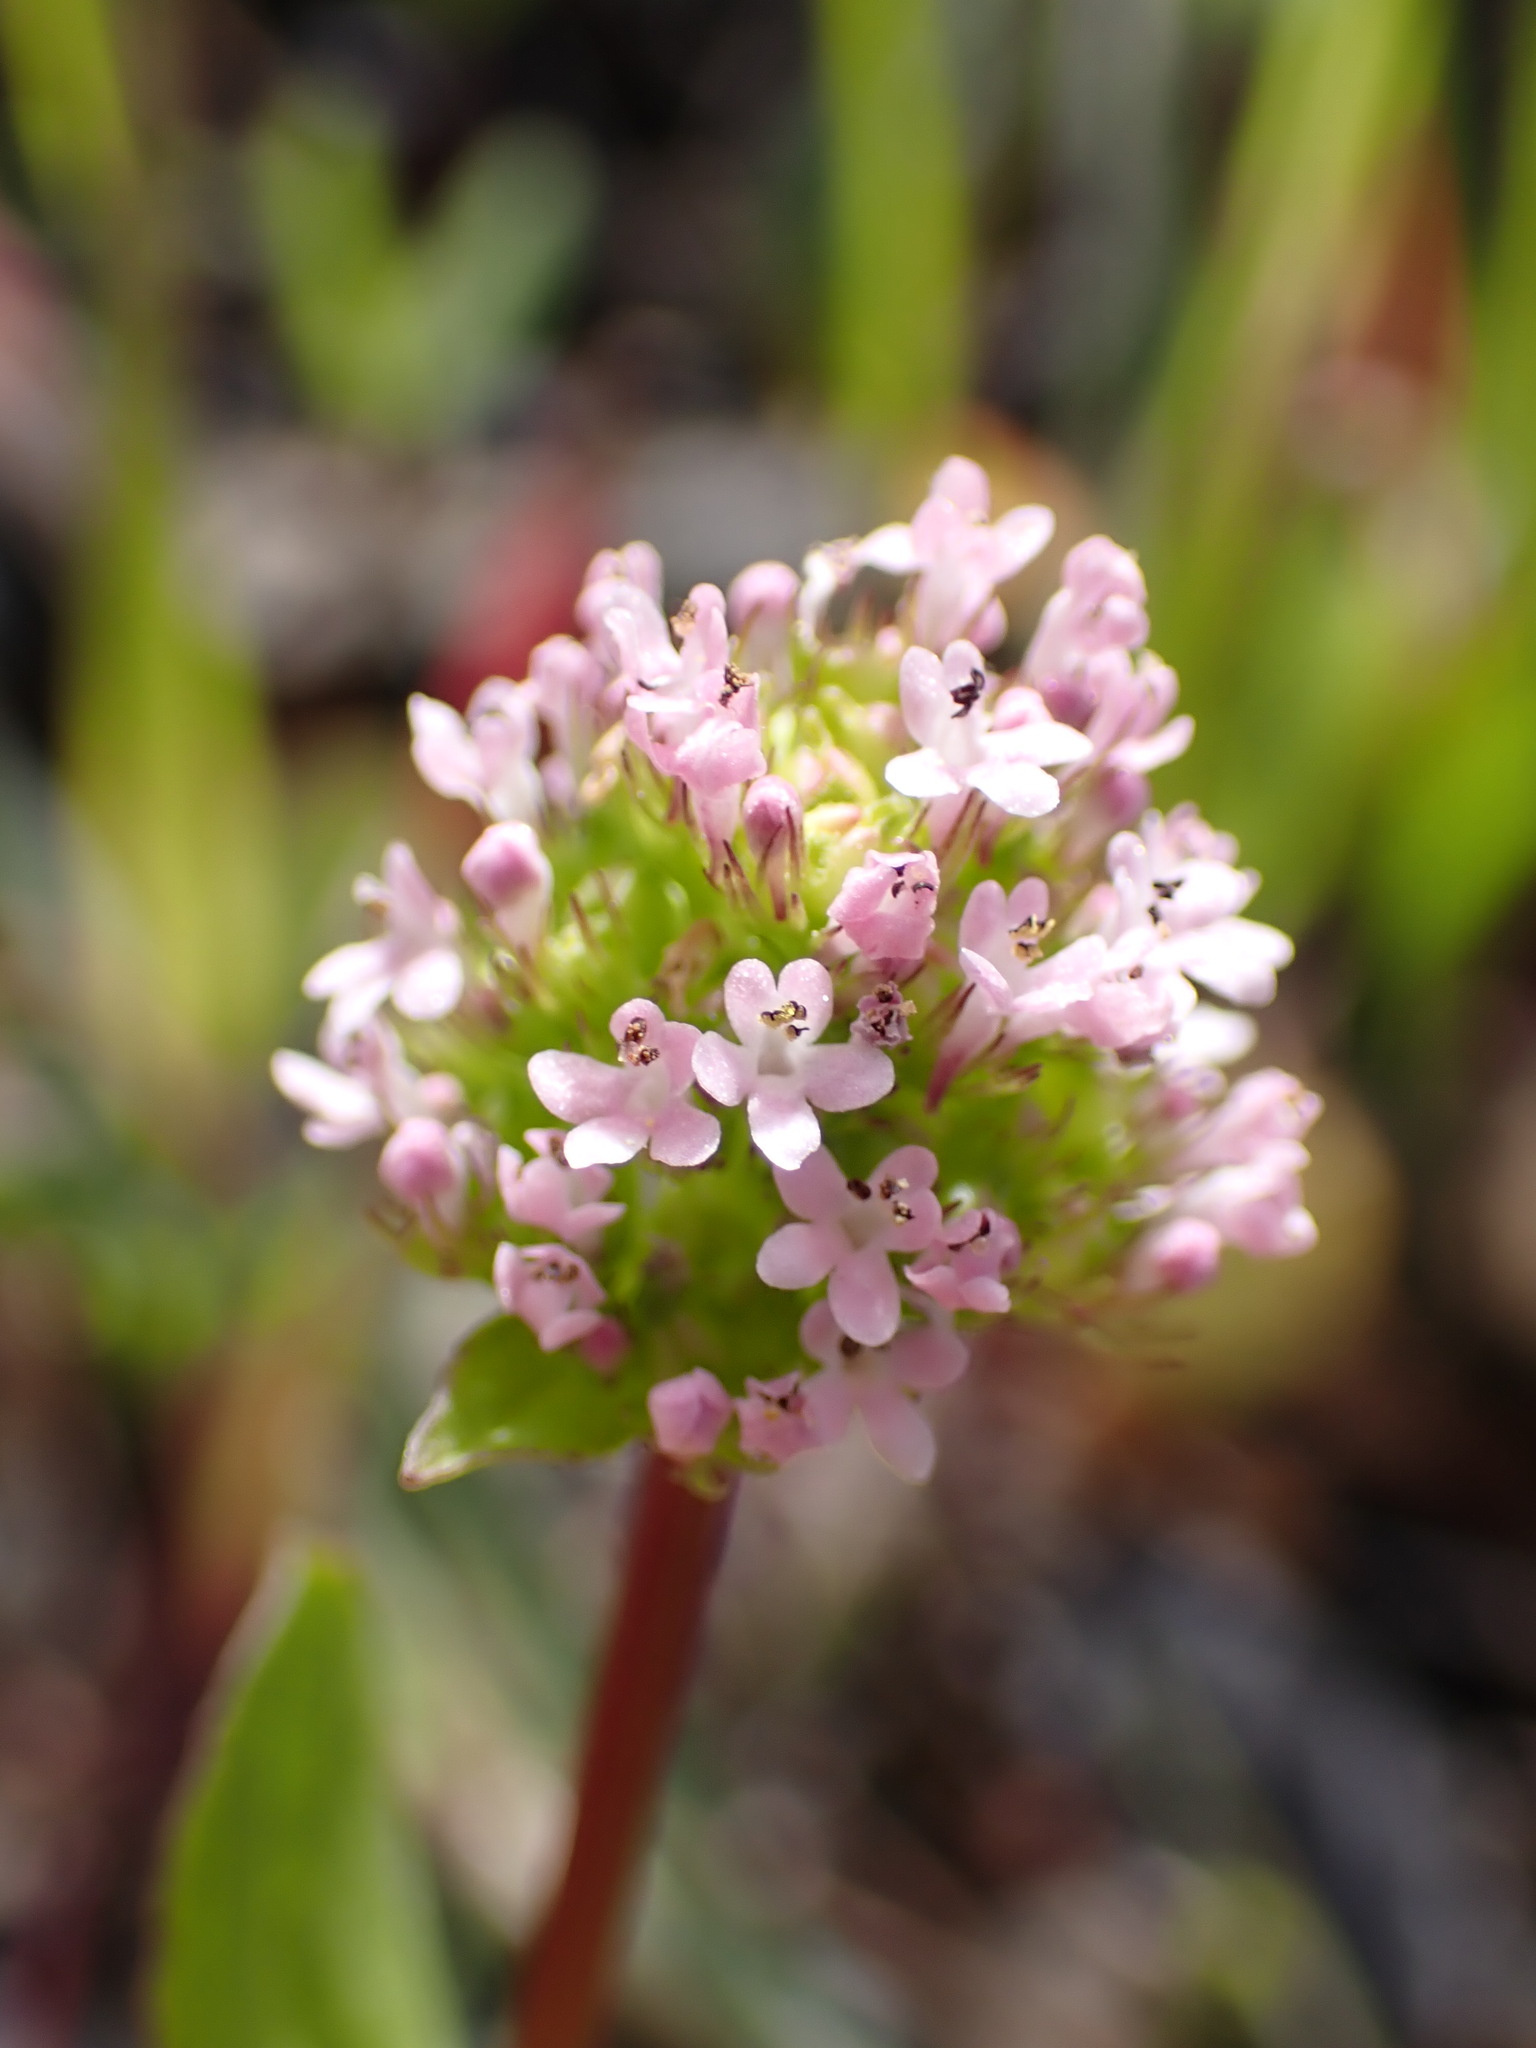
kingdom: Plantae
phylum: Tracheophyta
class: Magnoliopsida
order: Dipsacales
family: Caprifoliaceae
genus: Plectritis
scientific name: Plectritis macroptera
